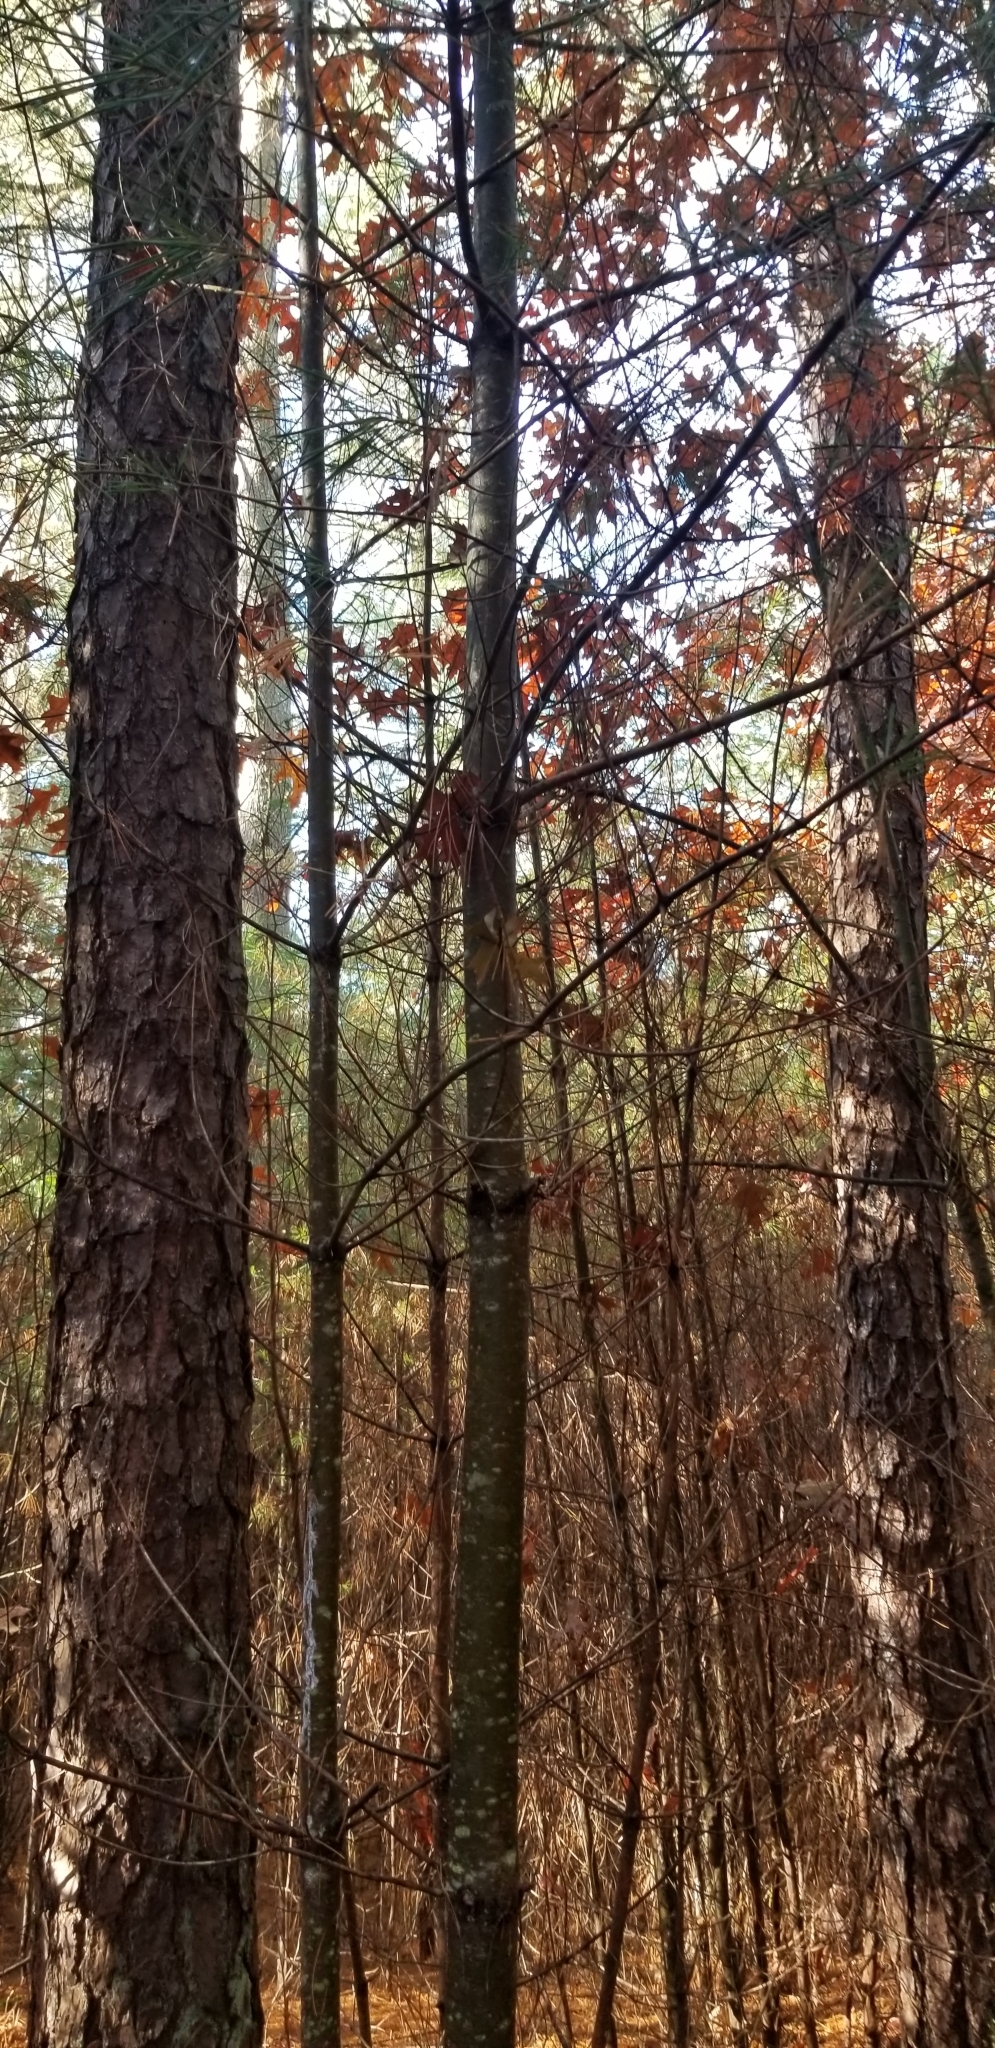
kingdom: Plantae
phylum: Tracheophyta
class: Pinopsida
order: Pinales
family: Pinaceae
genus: Pinus
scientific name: Pinus rigida
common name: Pitch pine
